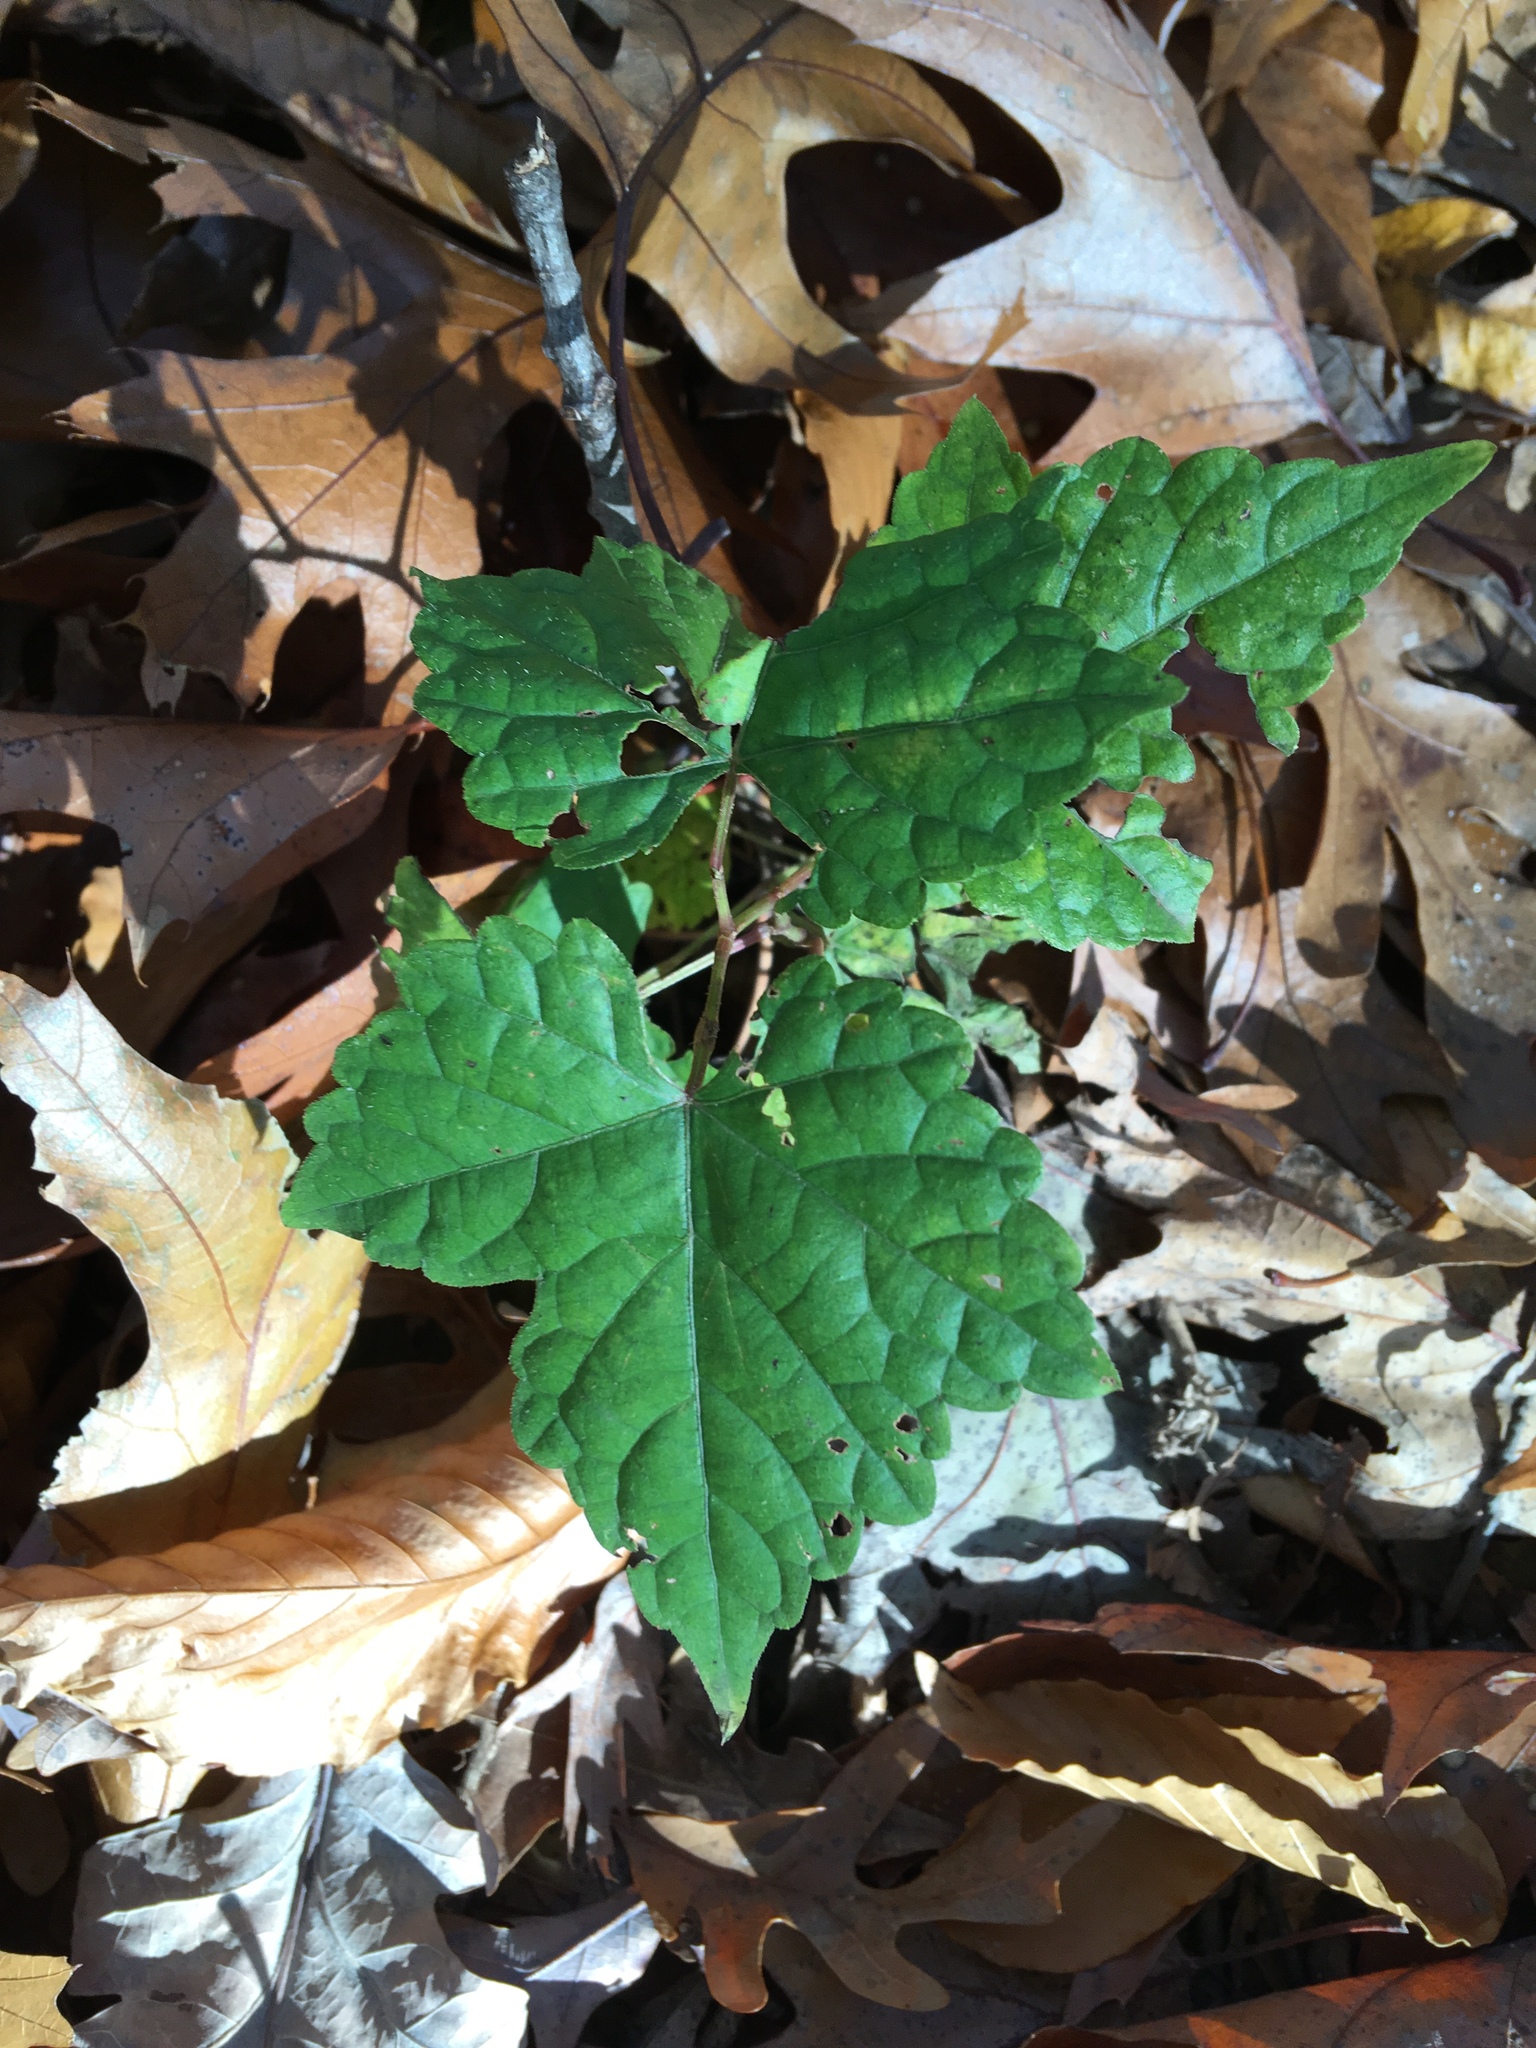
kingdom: Plantae
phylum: Tracheophyta
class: Magnoliopsida
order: Vitales
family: Vitaceae
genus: Ampelopsis
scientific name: Ampelopsis glandulosa
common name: Amur peppervine
